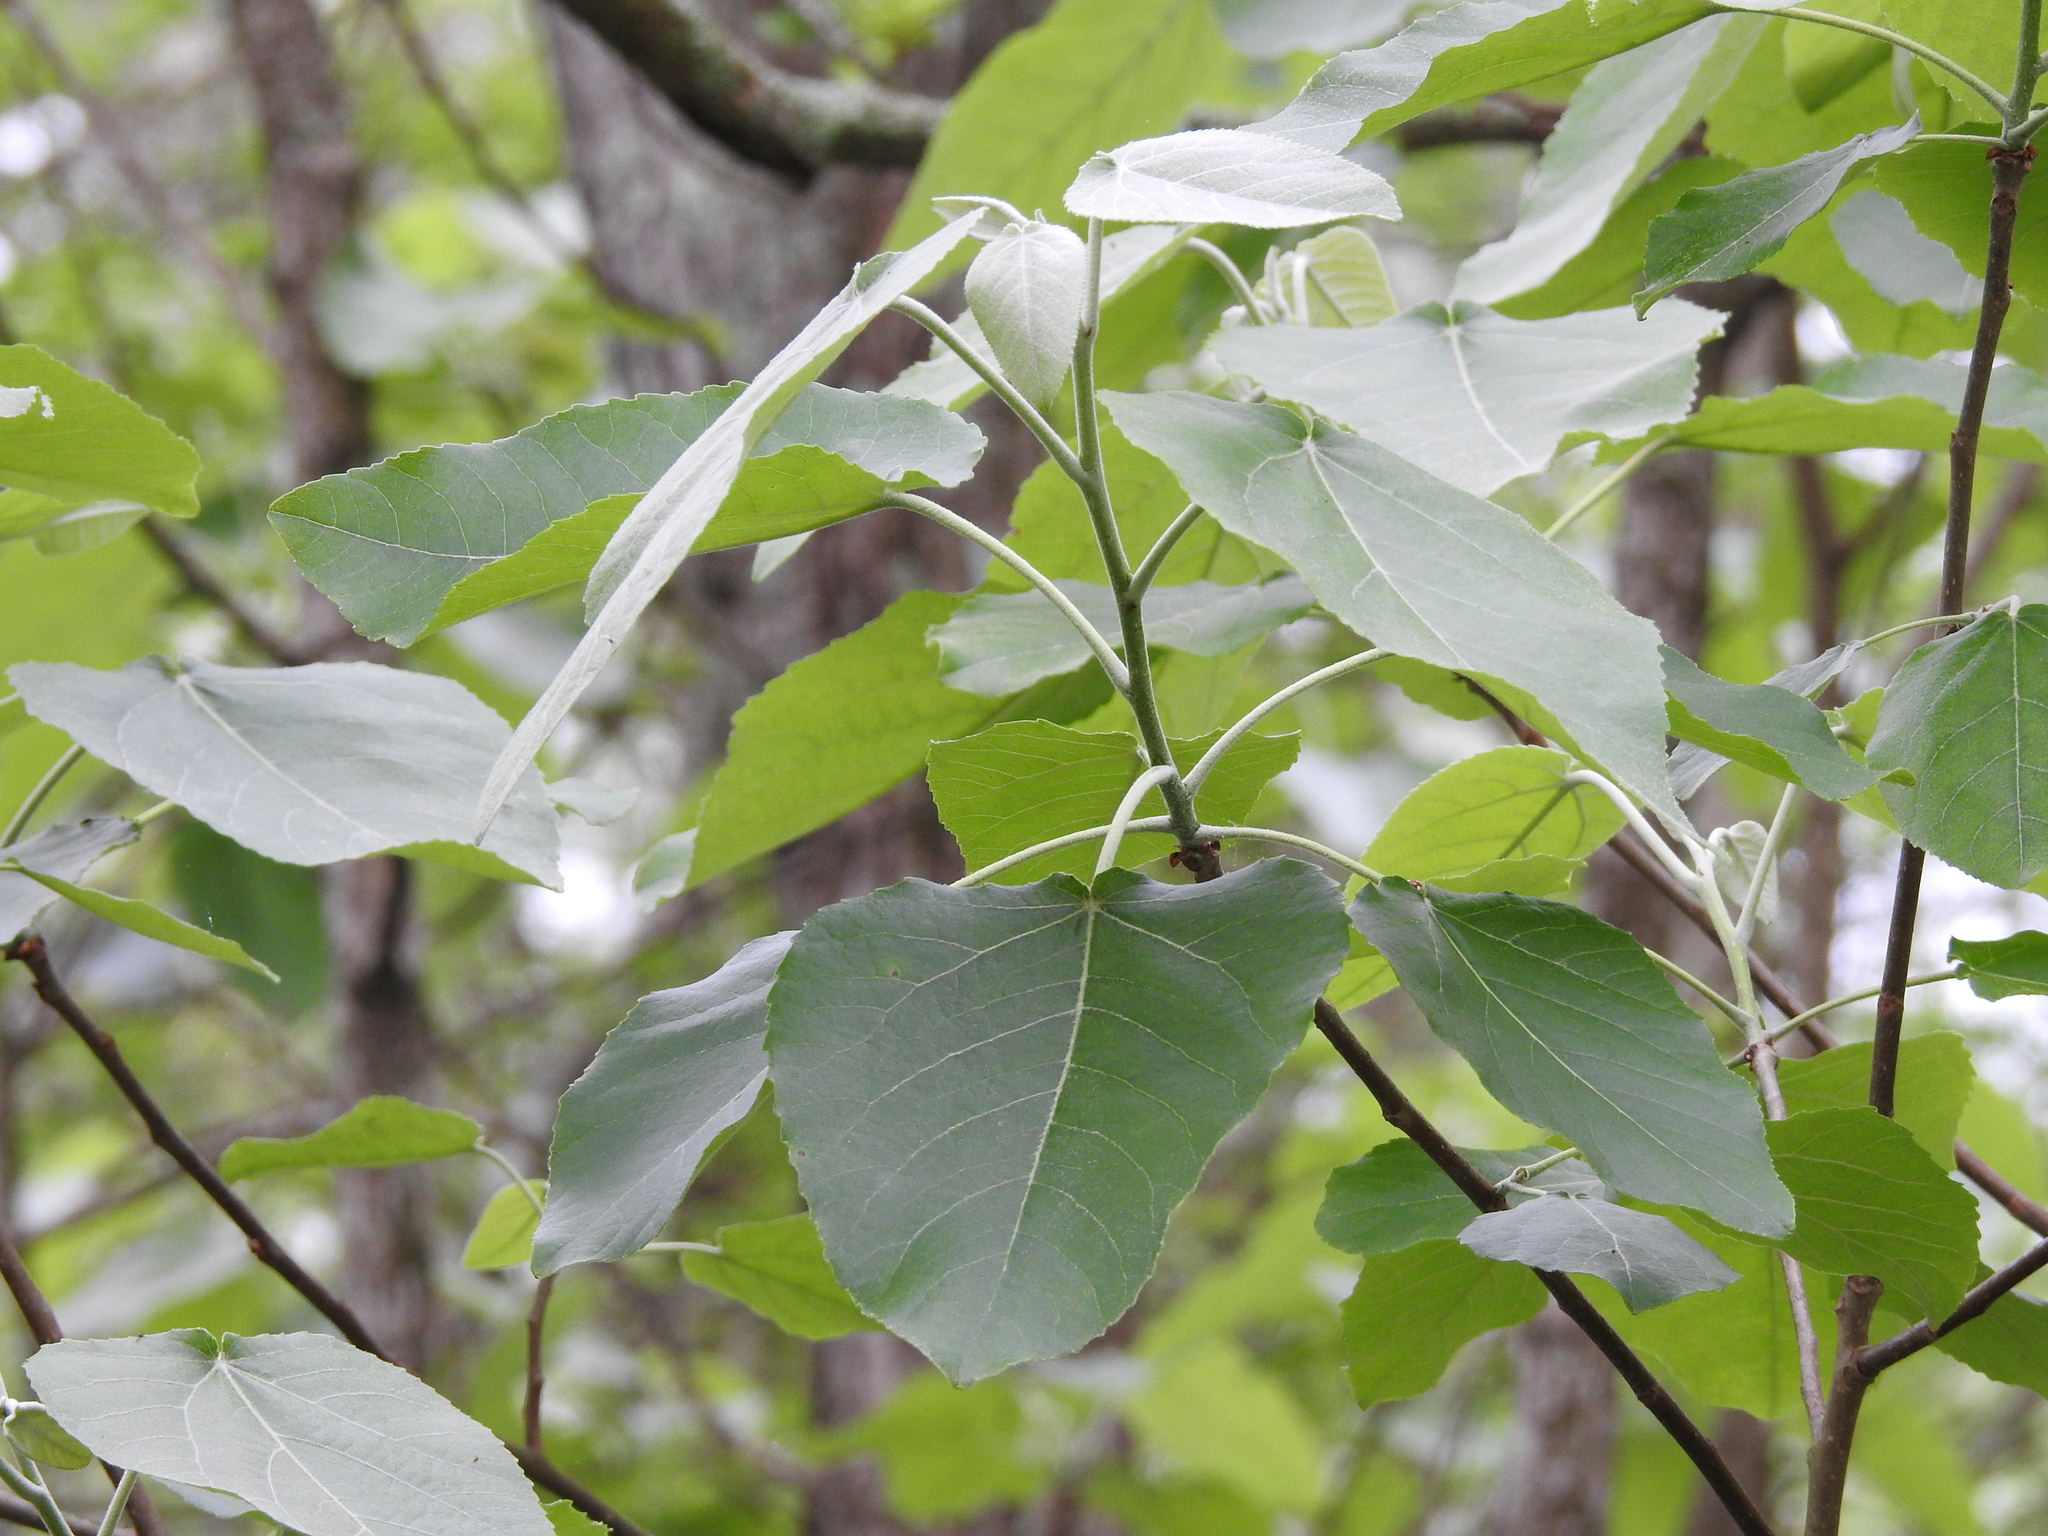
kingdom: Plantae
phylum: Tracheophyta
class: Magnoliopsida
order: Malpighiales
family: Salicaceae
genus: Populus
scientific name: Populus heterophylla
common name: Downy poplar
